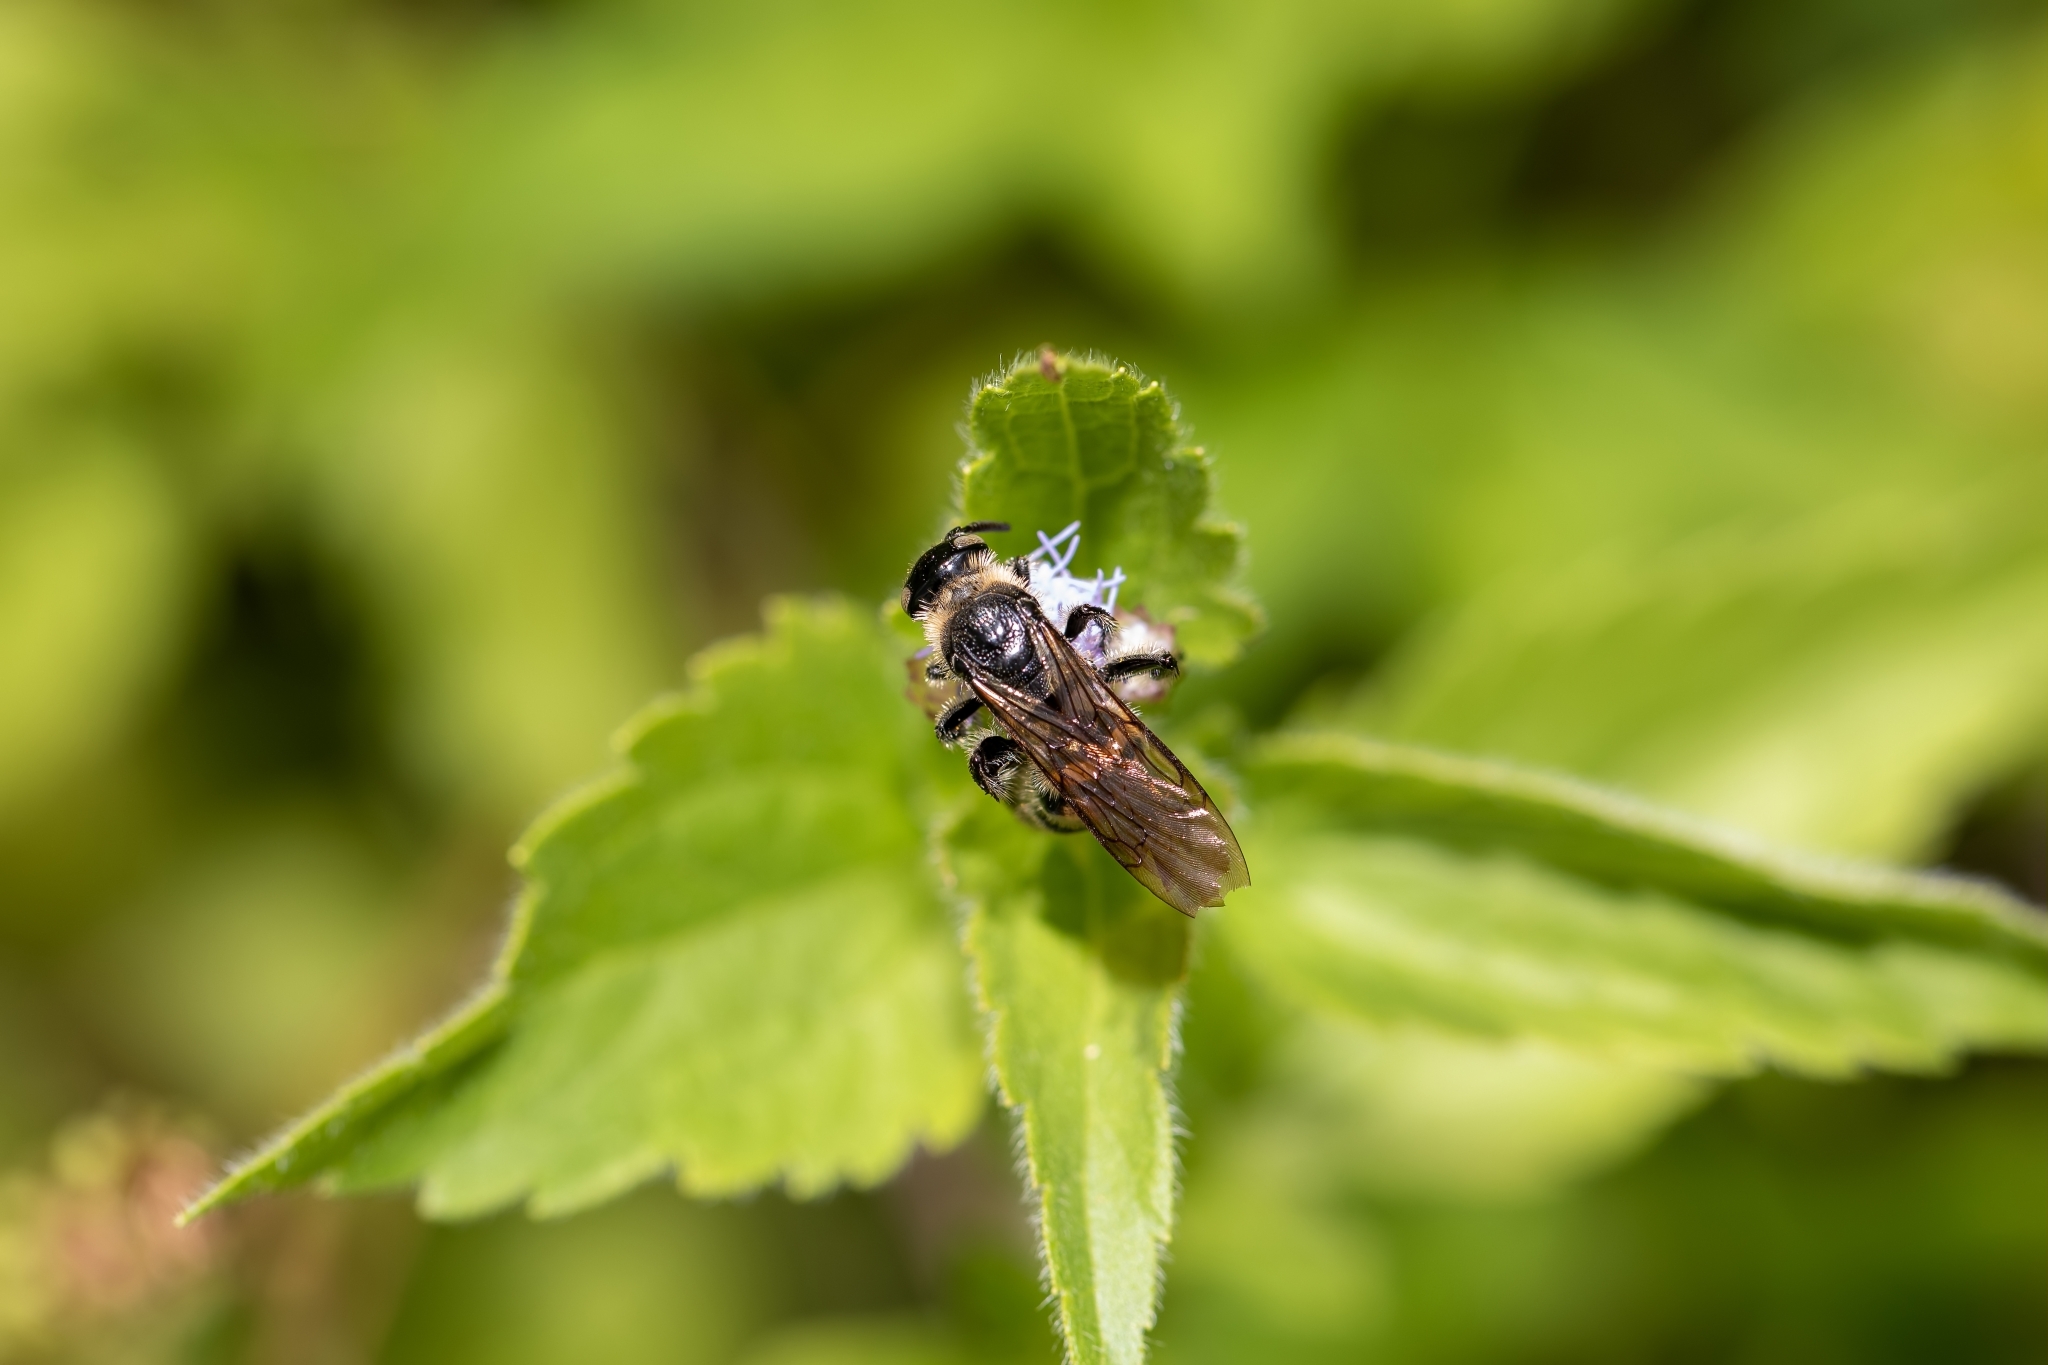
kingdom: Animalia
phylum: Arthropoda
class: Insecta
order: Hymenoptera
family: Scoliidae
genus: Dielis
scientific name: Dielis
